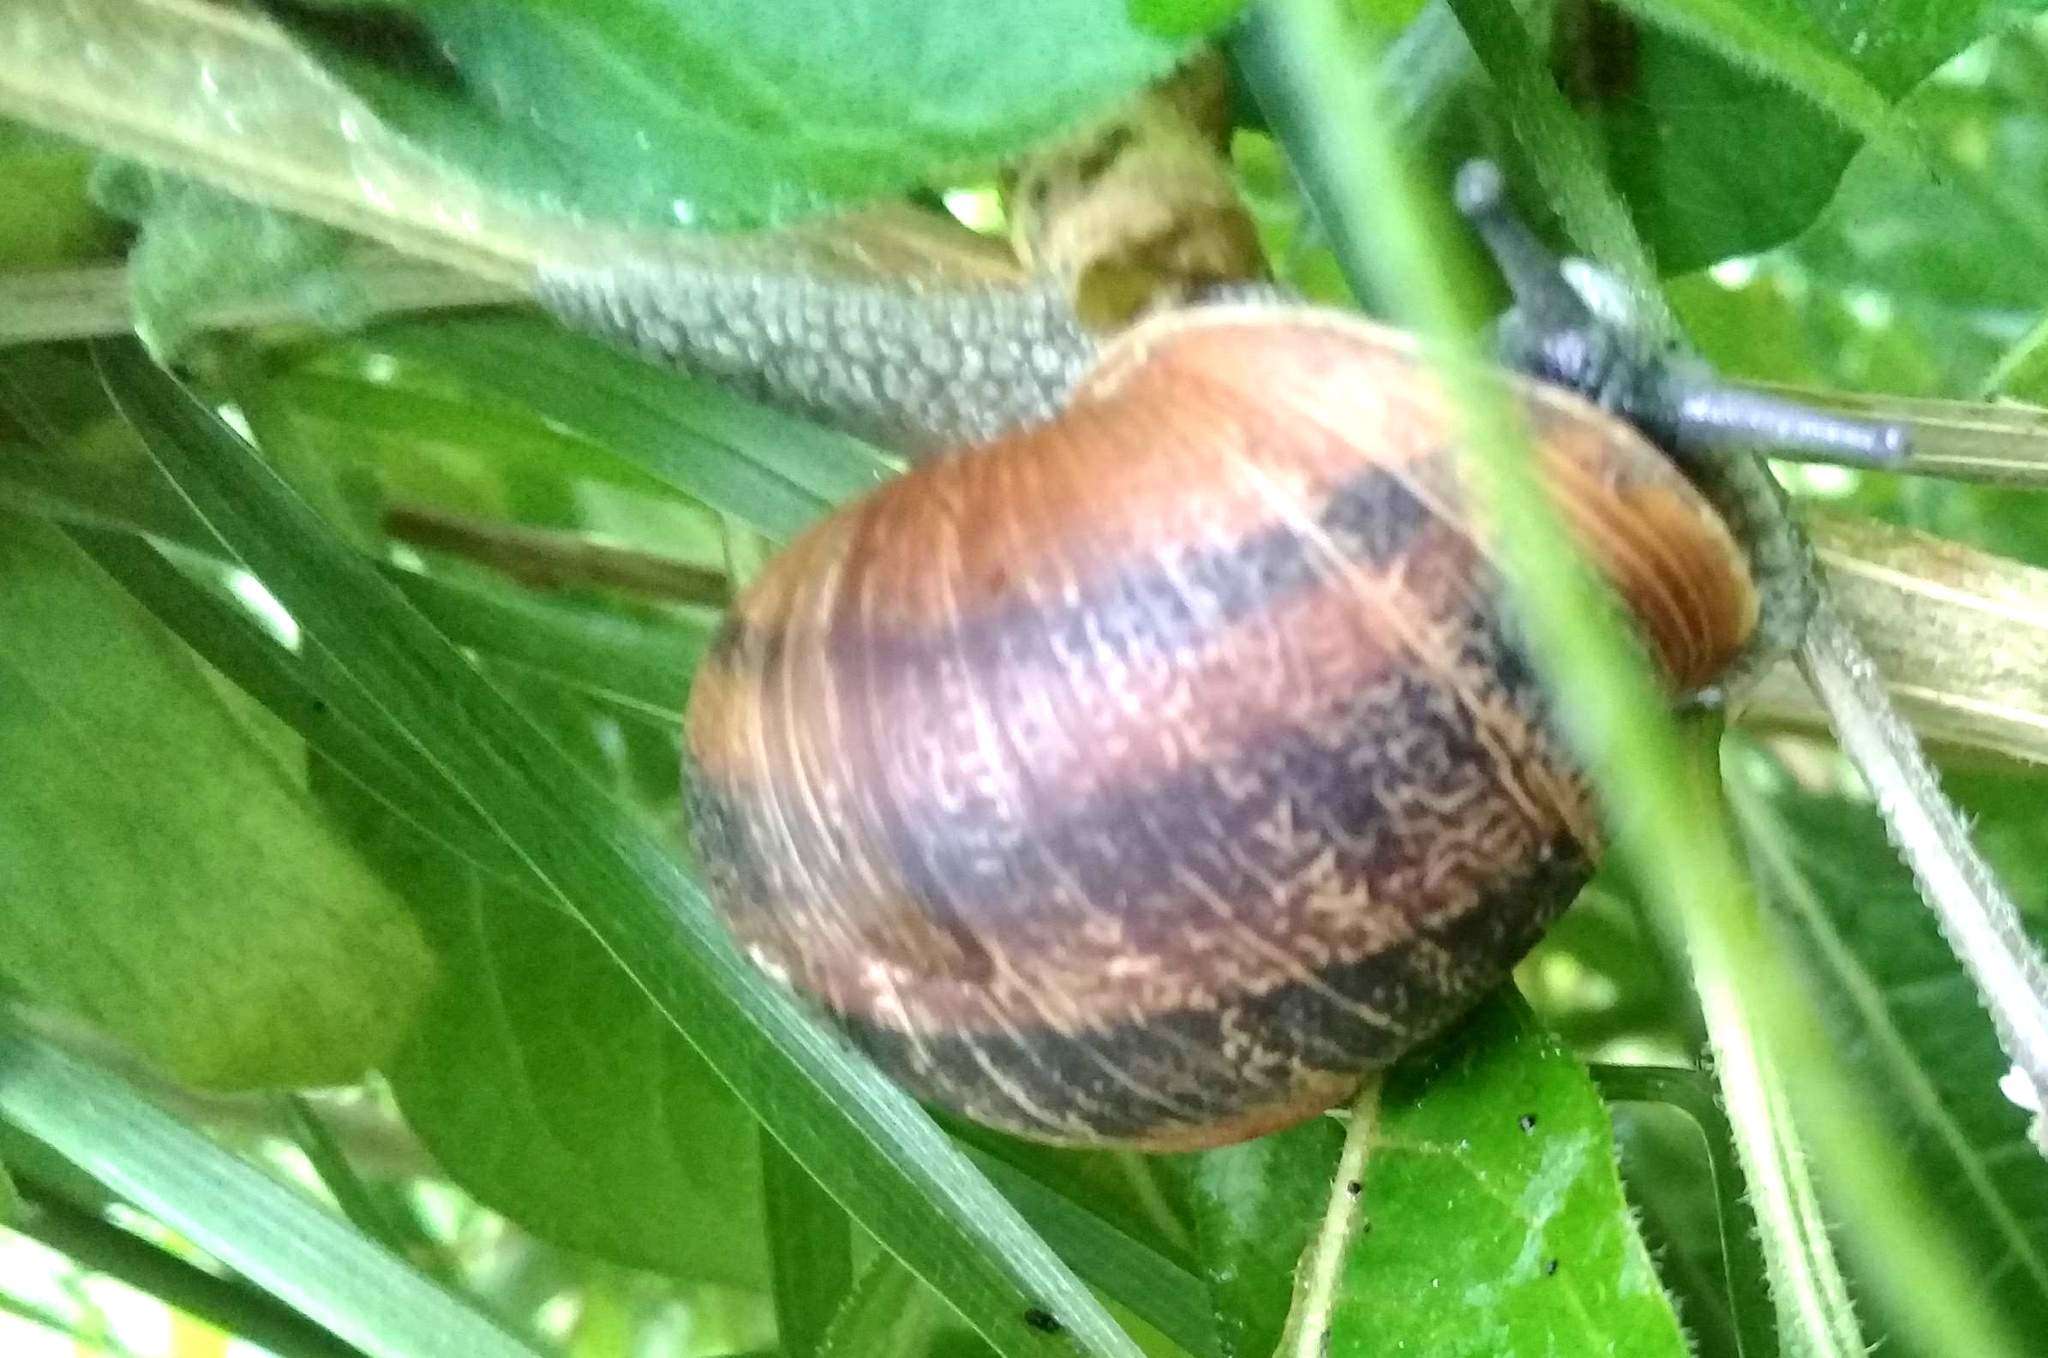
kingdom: Animalia
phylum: Mollusca
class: Gastropoda
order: Stylommatophora
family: Helicidae
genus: Cornu
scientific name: Cornu aspersum
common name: Brown garden snail
